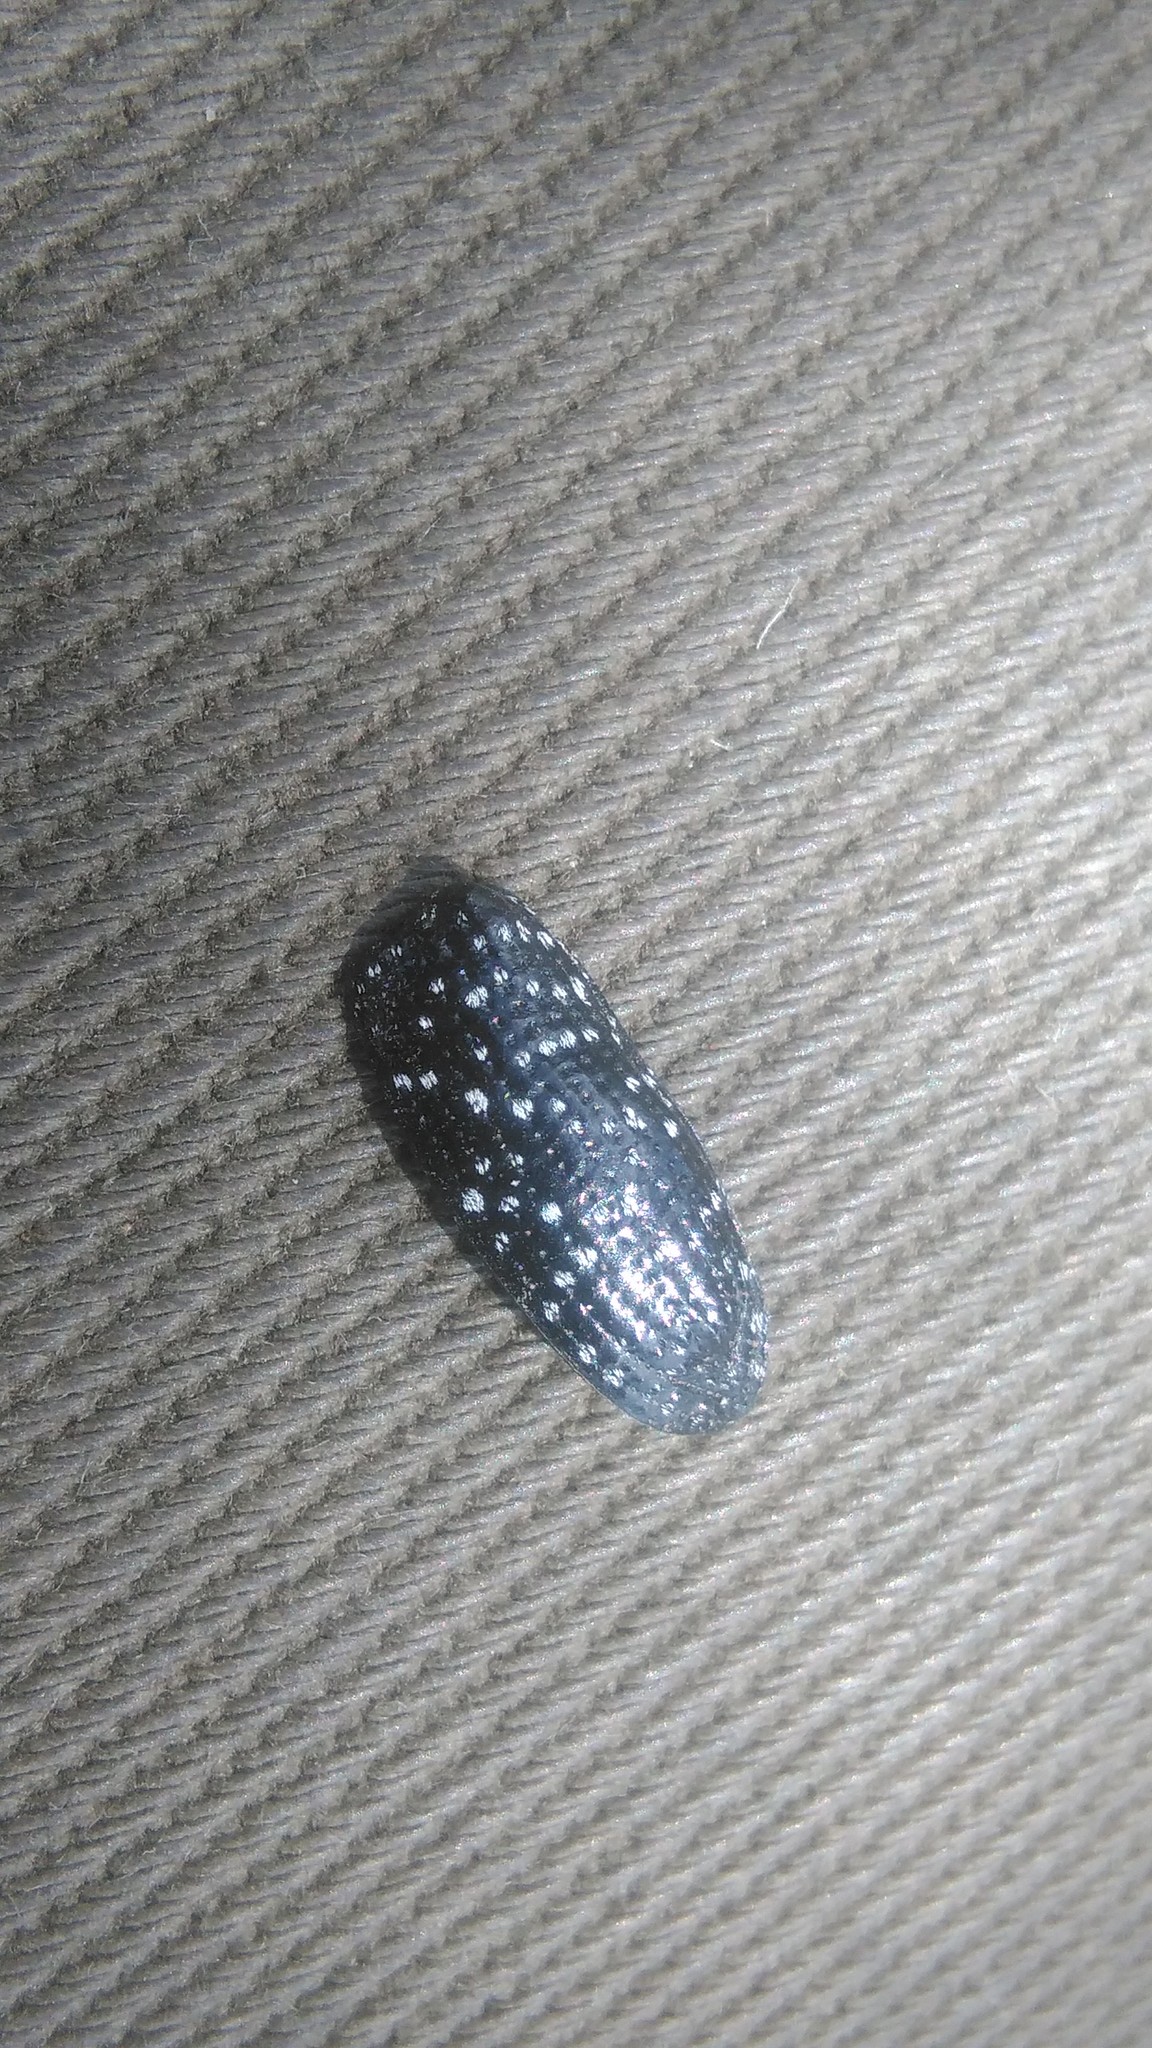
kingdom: Animalia
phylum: Arthropoda
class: Insecta
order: Coleoptera
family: Curculionidae
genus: Heilipodus
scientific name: Heilipodus erythropus
